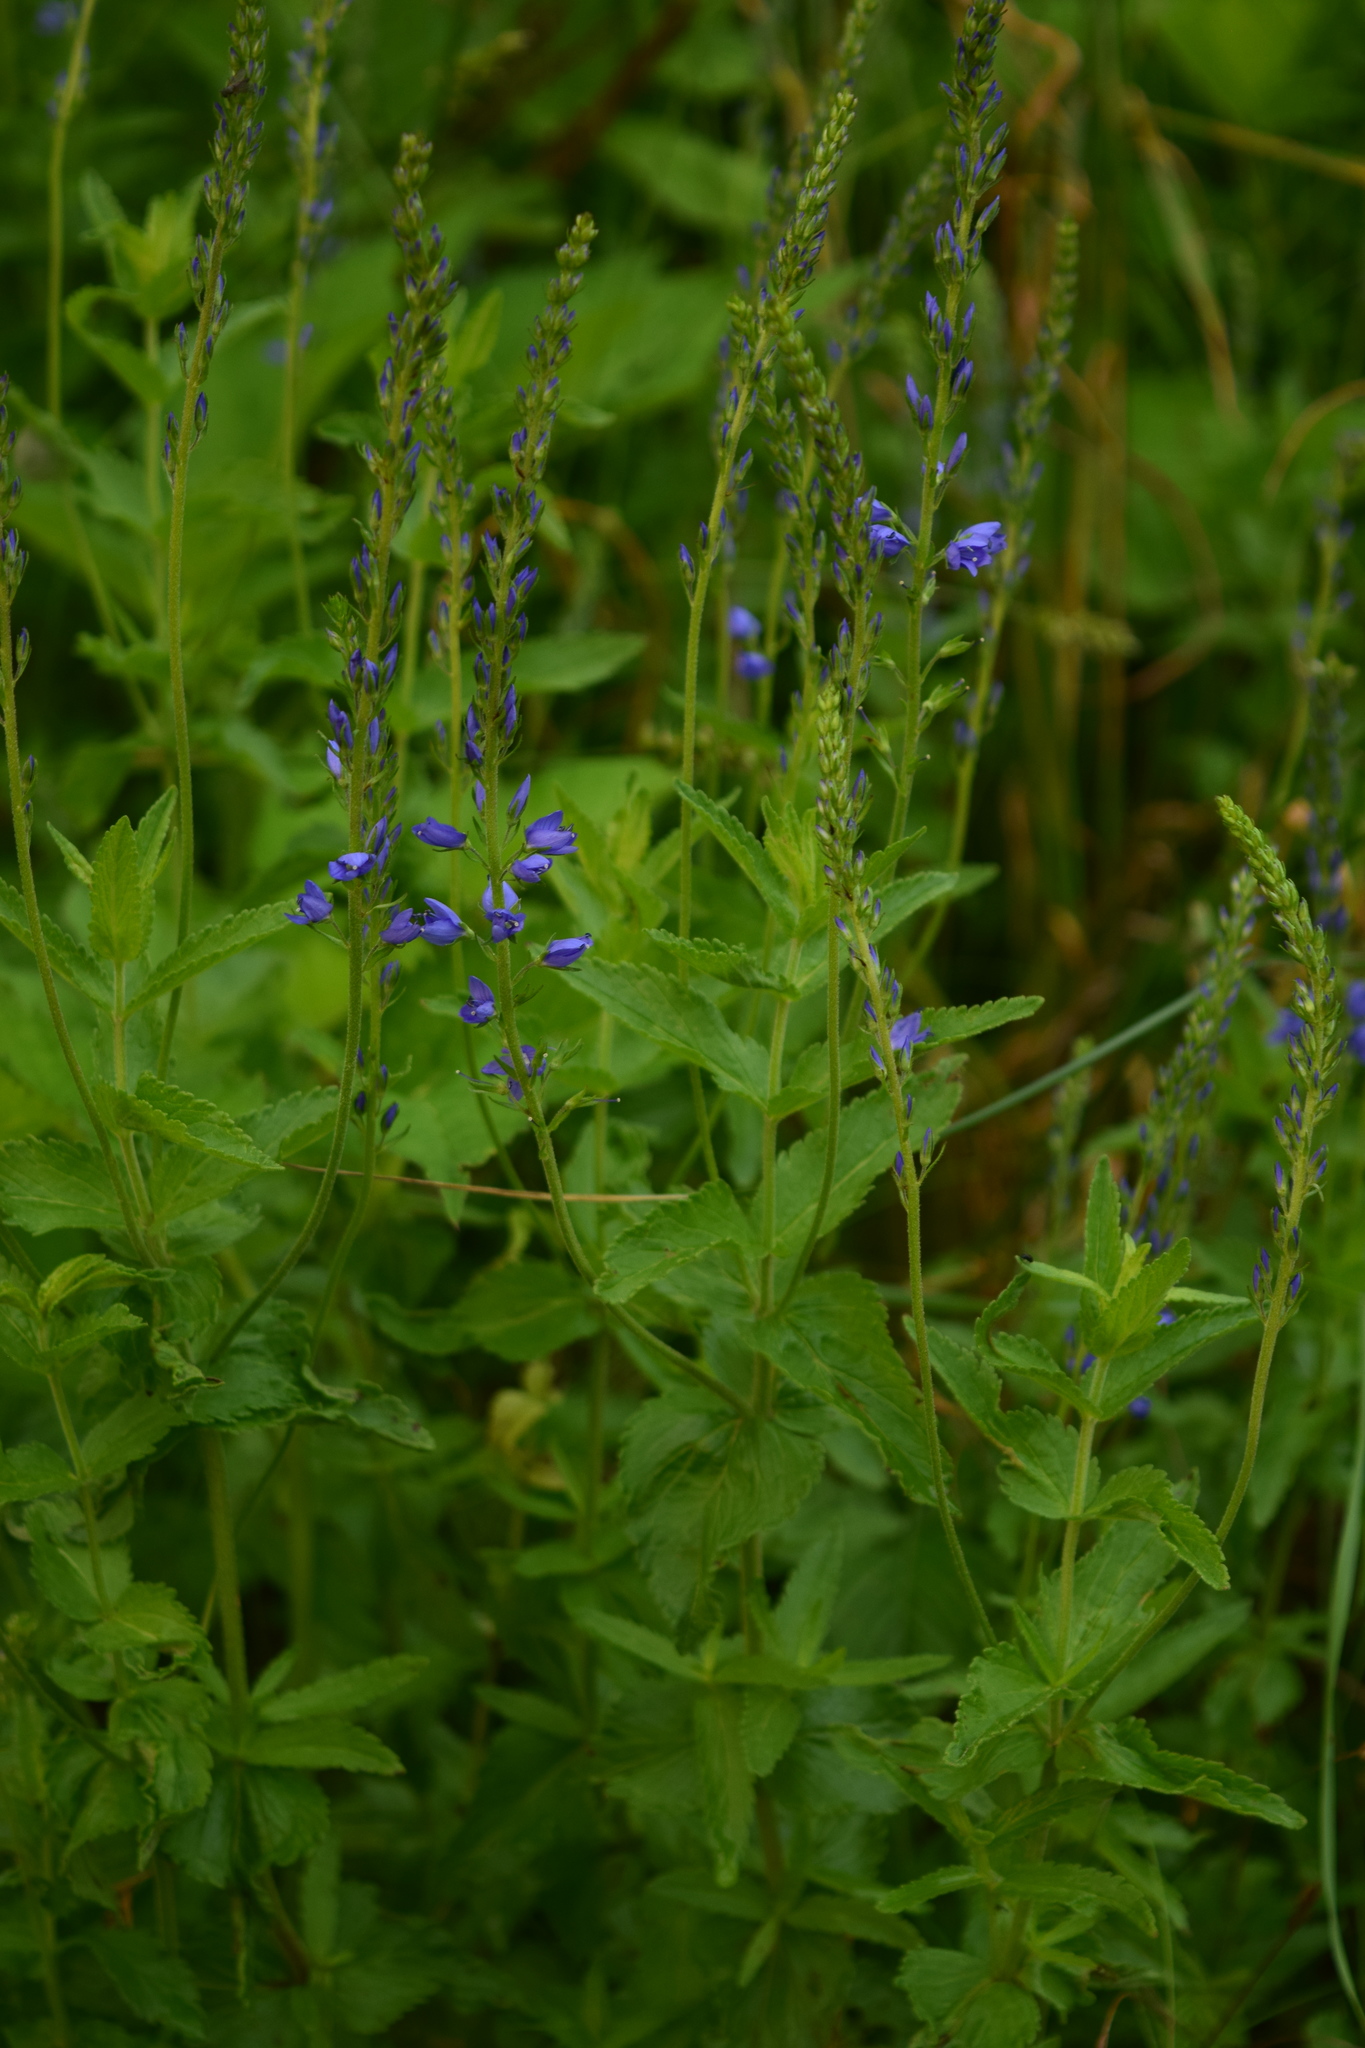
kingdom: Plantae
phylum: Tracheophyta
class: Magnoliopsida
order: Lamiales
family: Plantaginaceae
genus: Veronica
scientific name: Veronica teucrium
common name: Large speedwell
